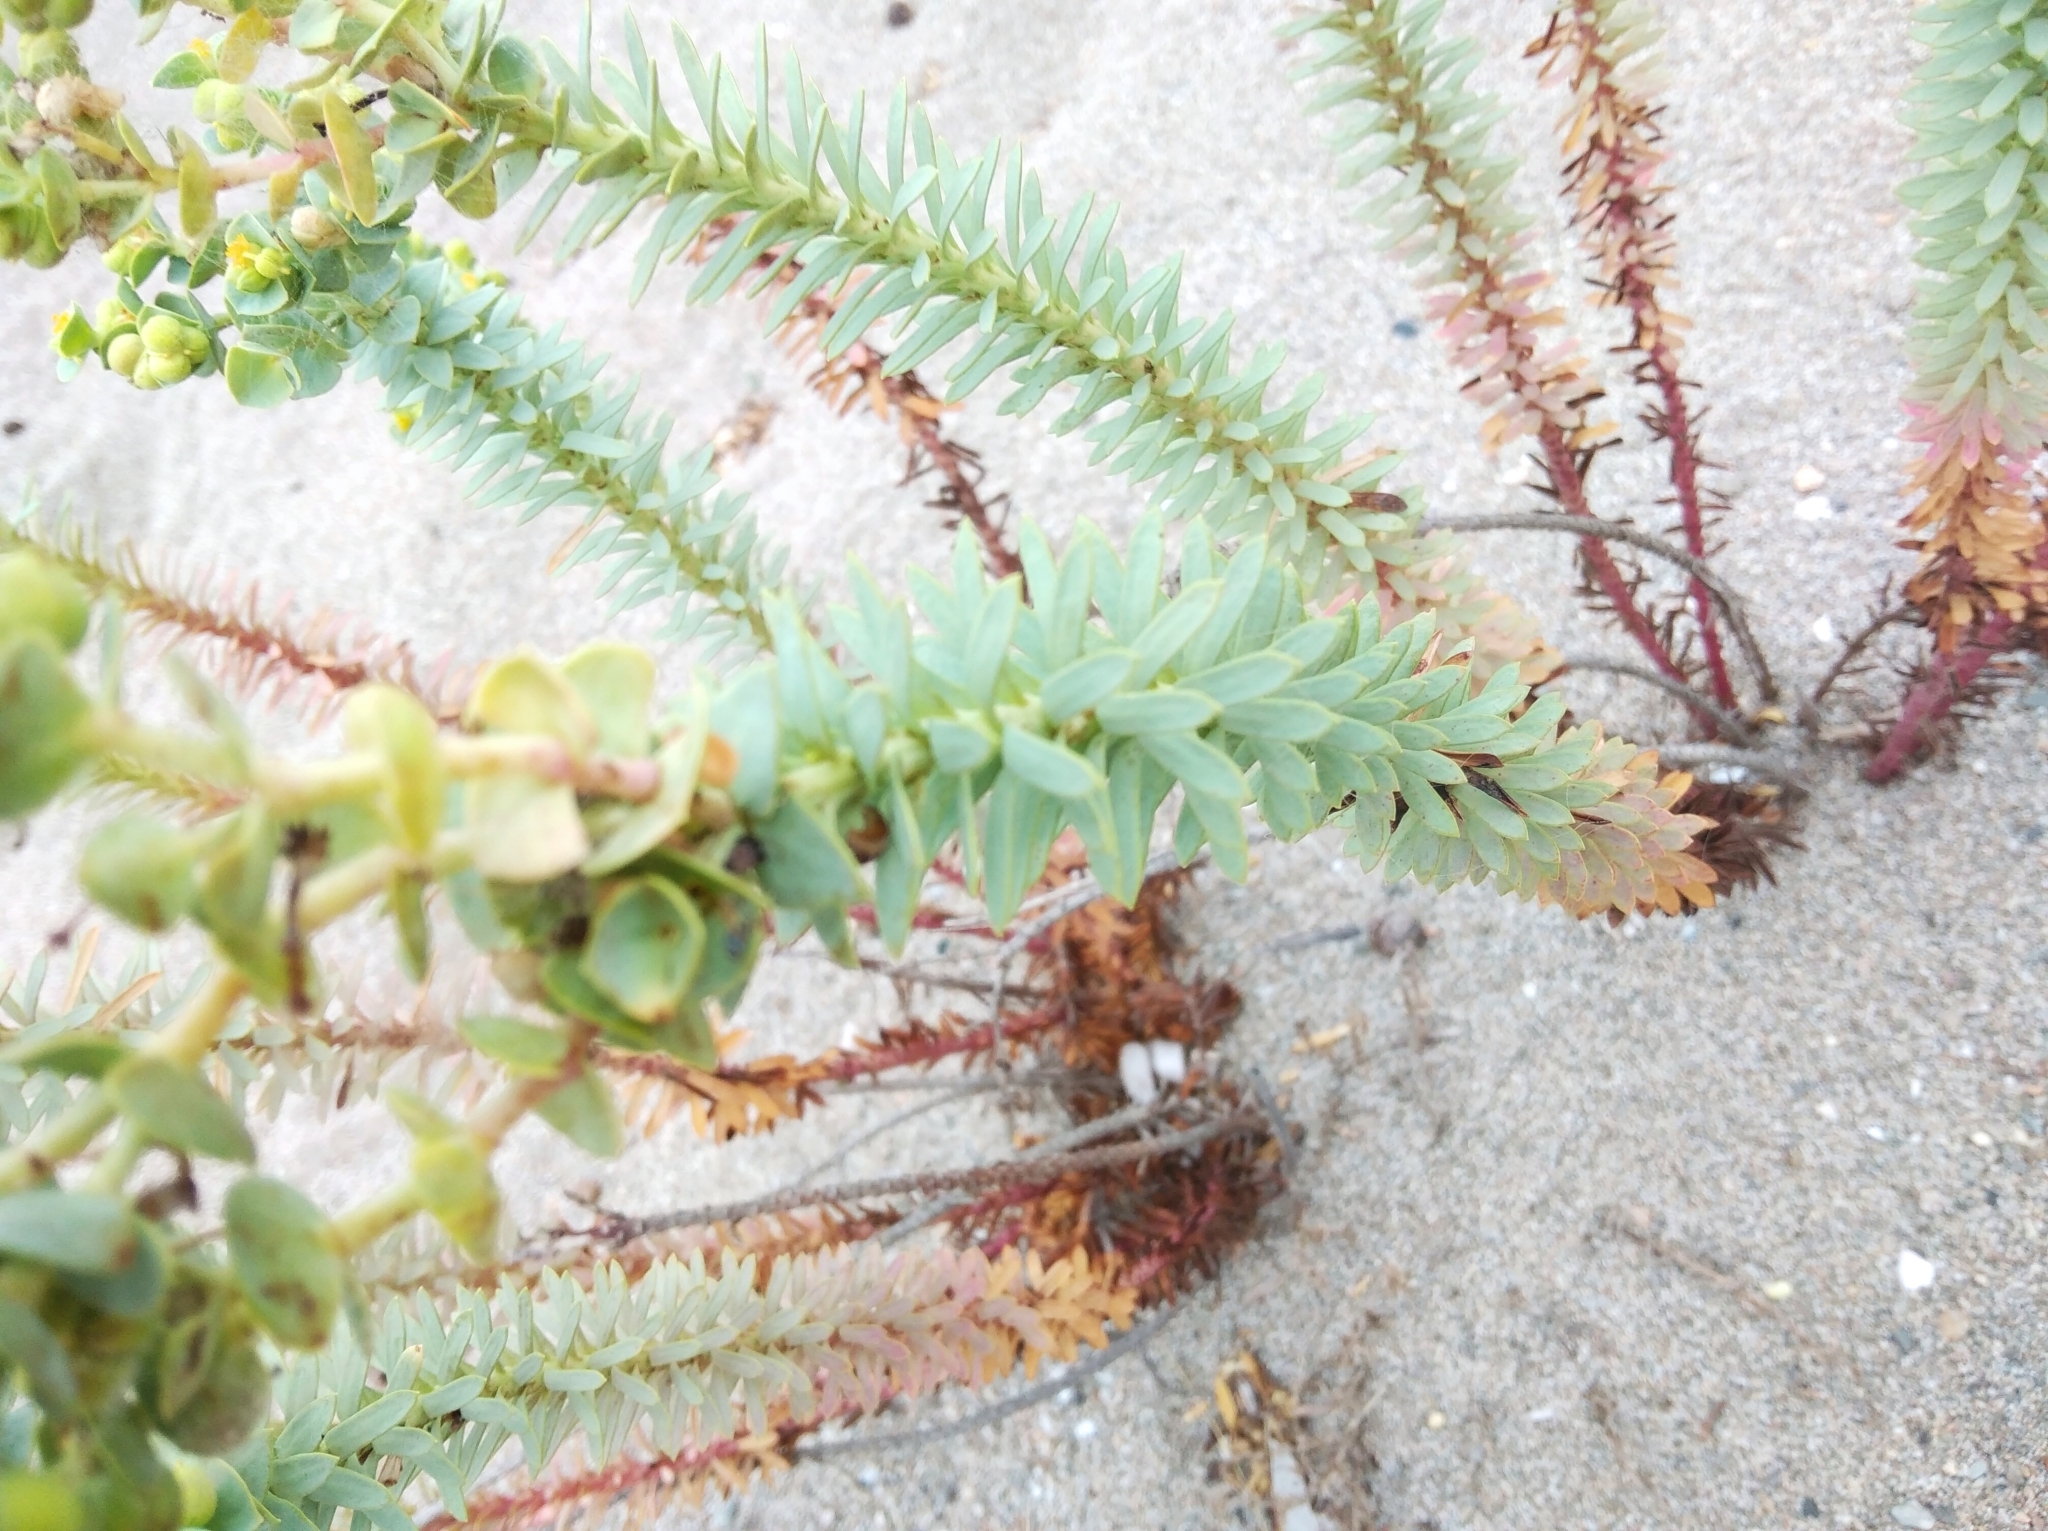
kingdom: Plantae
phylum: Tracheophyta
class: Magnoliopsida
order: Malpighiales
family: Euphorbiaceae
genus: Euphorbia
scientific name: Euphorbia paralias
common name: Sea spurge
